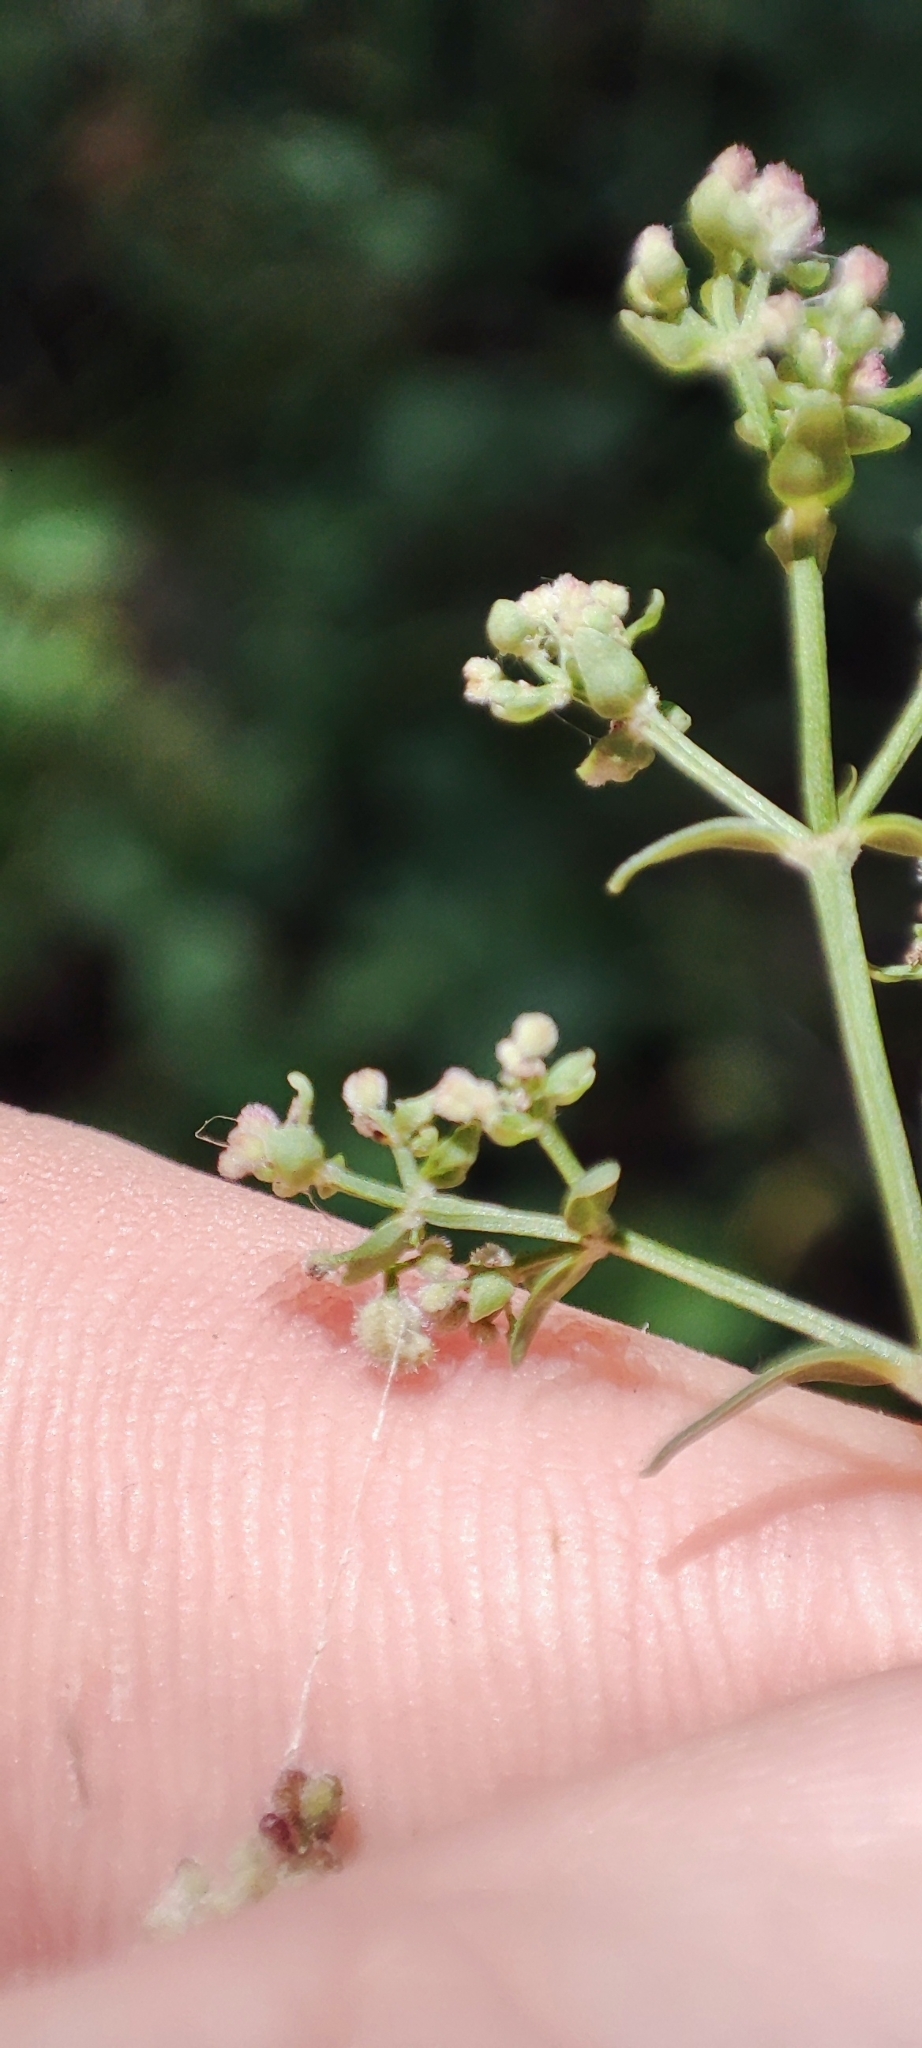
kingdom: Plantae
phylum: Tracheophyta
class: Magnoliopsida
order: Gentianales
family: Rubiaceae
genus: Galium
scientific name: Galium boreale
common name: Northern bedstraw
